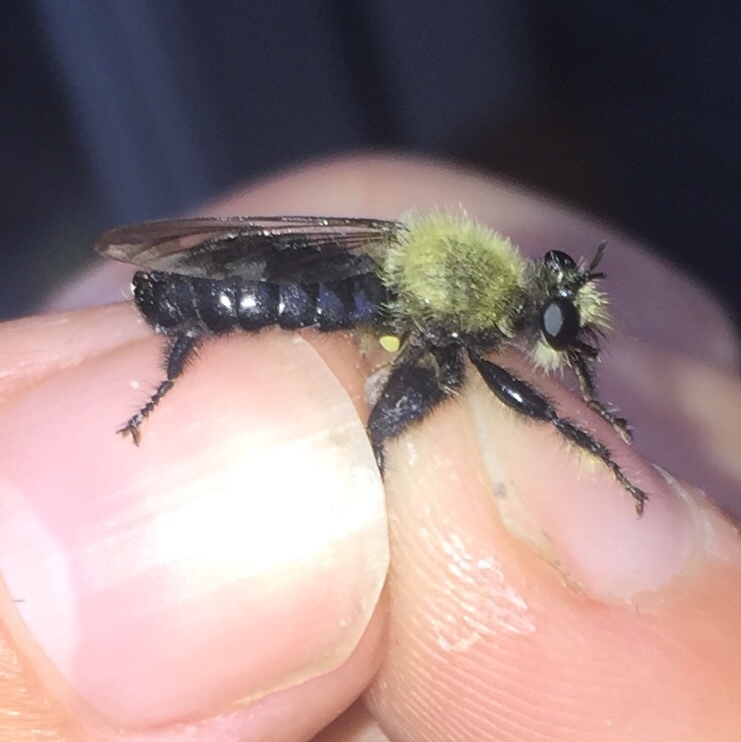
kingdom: Animalia
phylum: Arthropoda
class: Insecta
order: Diptera
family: Asilidae
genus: Laphria
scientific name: Laphria flavicollis
